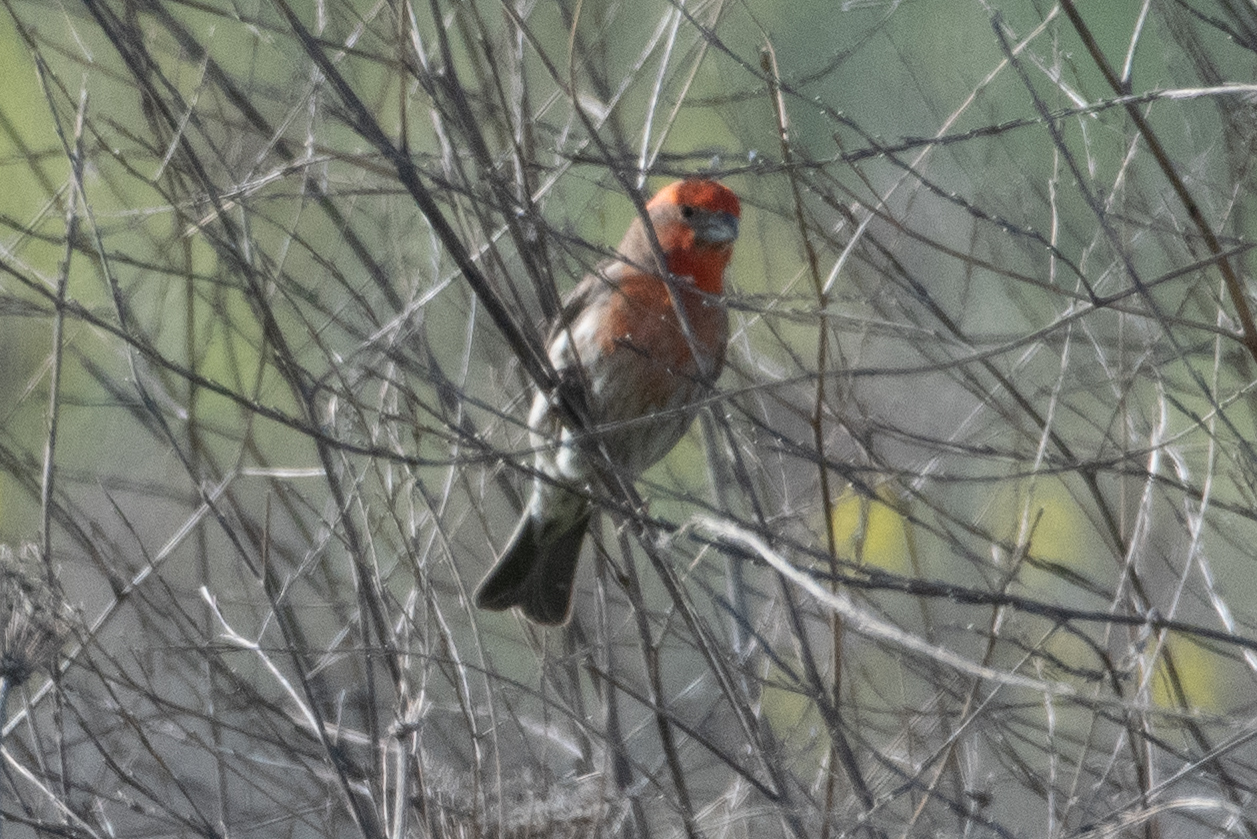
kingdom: Animalia
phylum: Chordata
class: Aves
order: Passeriformes
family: Fringillidae
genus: Haemorhous
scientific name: Haemorhous mexicanus
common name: House finch
